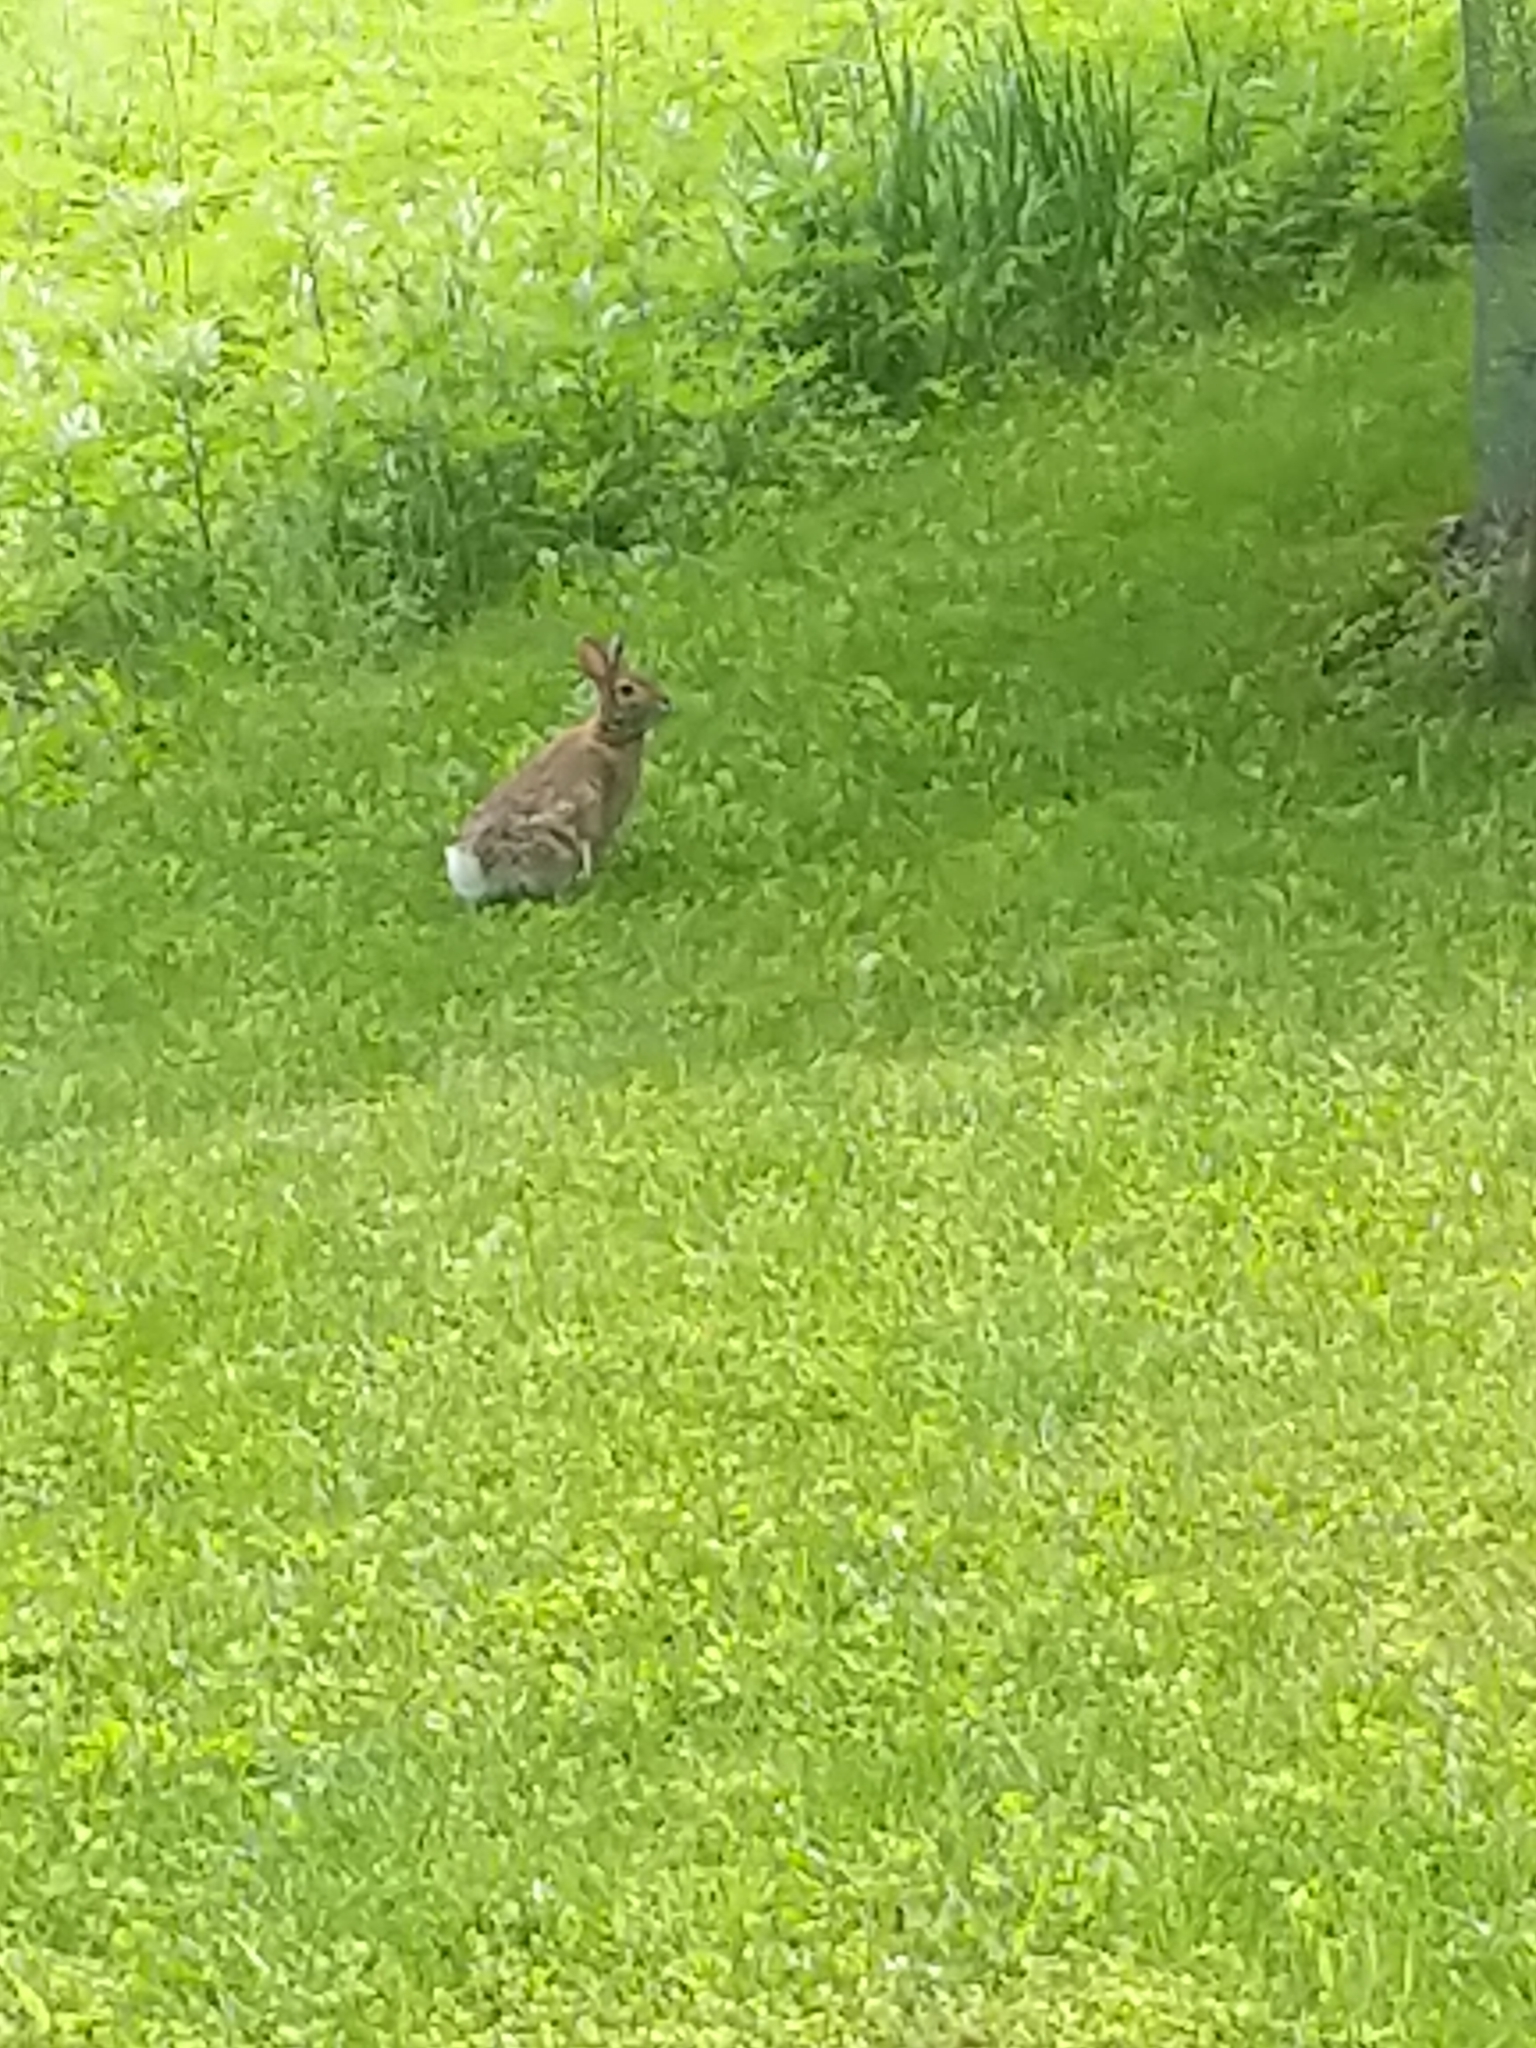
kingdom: Animalia
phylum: Chordata
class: Mammalia
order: Lagomorpha
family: Leporidae
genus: Sylvilagus
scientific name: Sylvilagus floridanus
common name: Eastern cottontail
